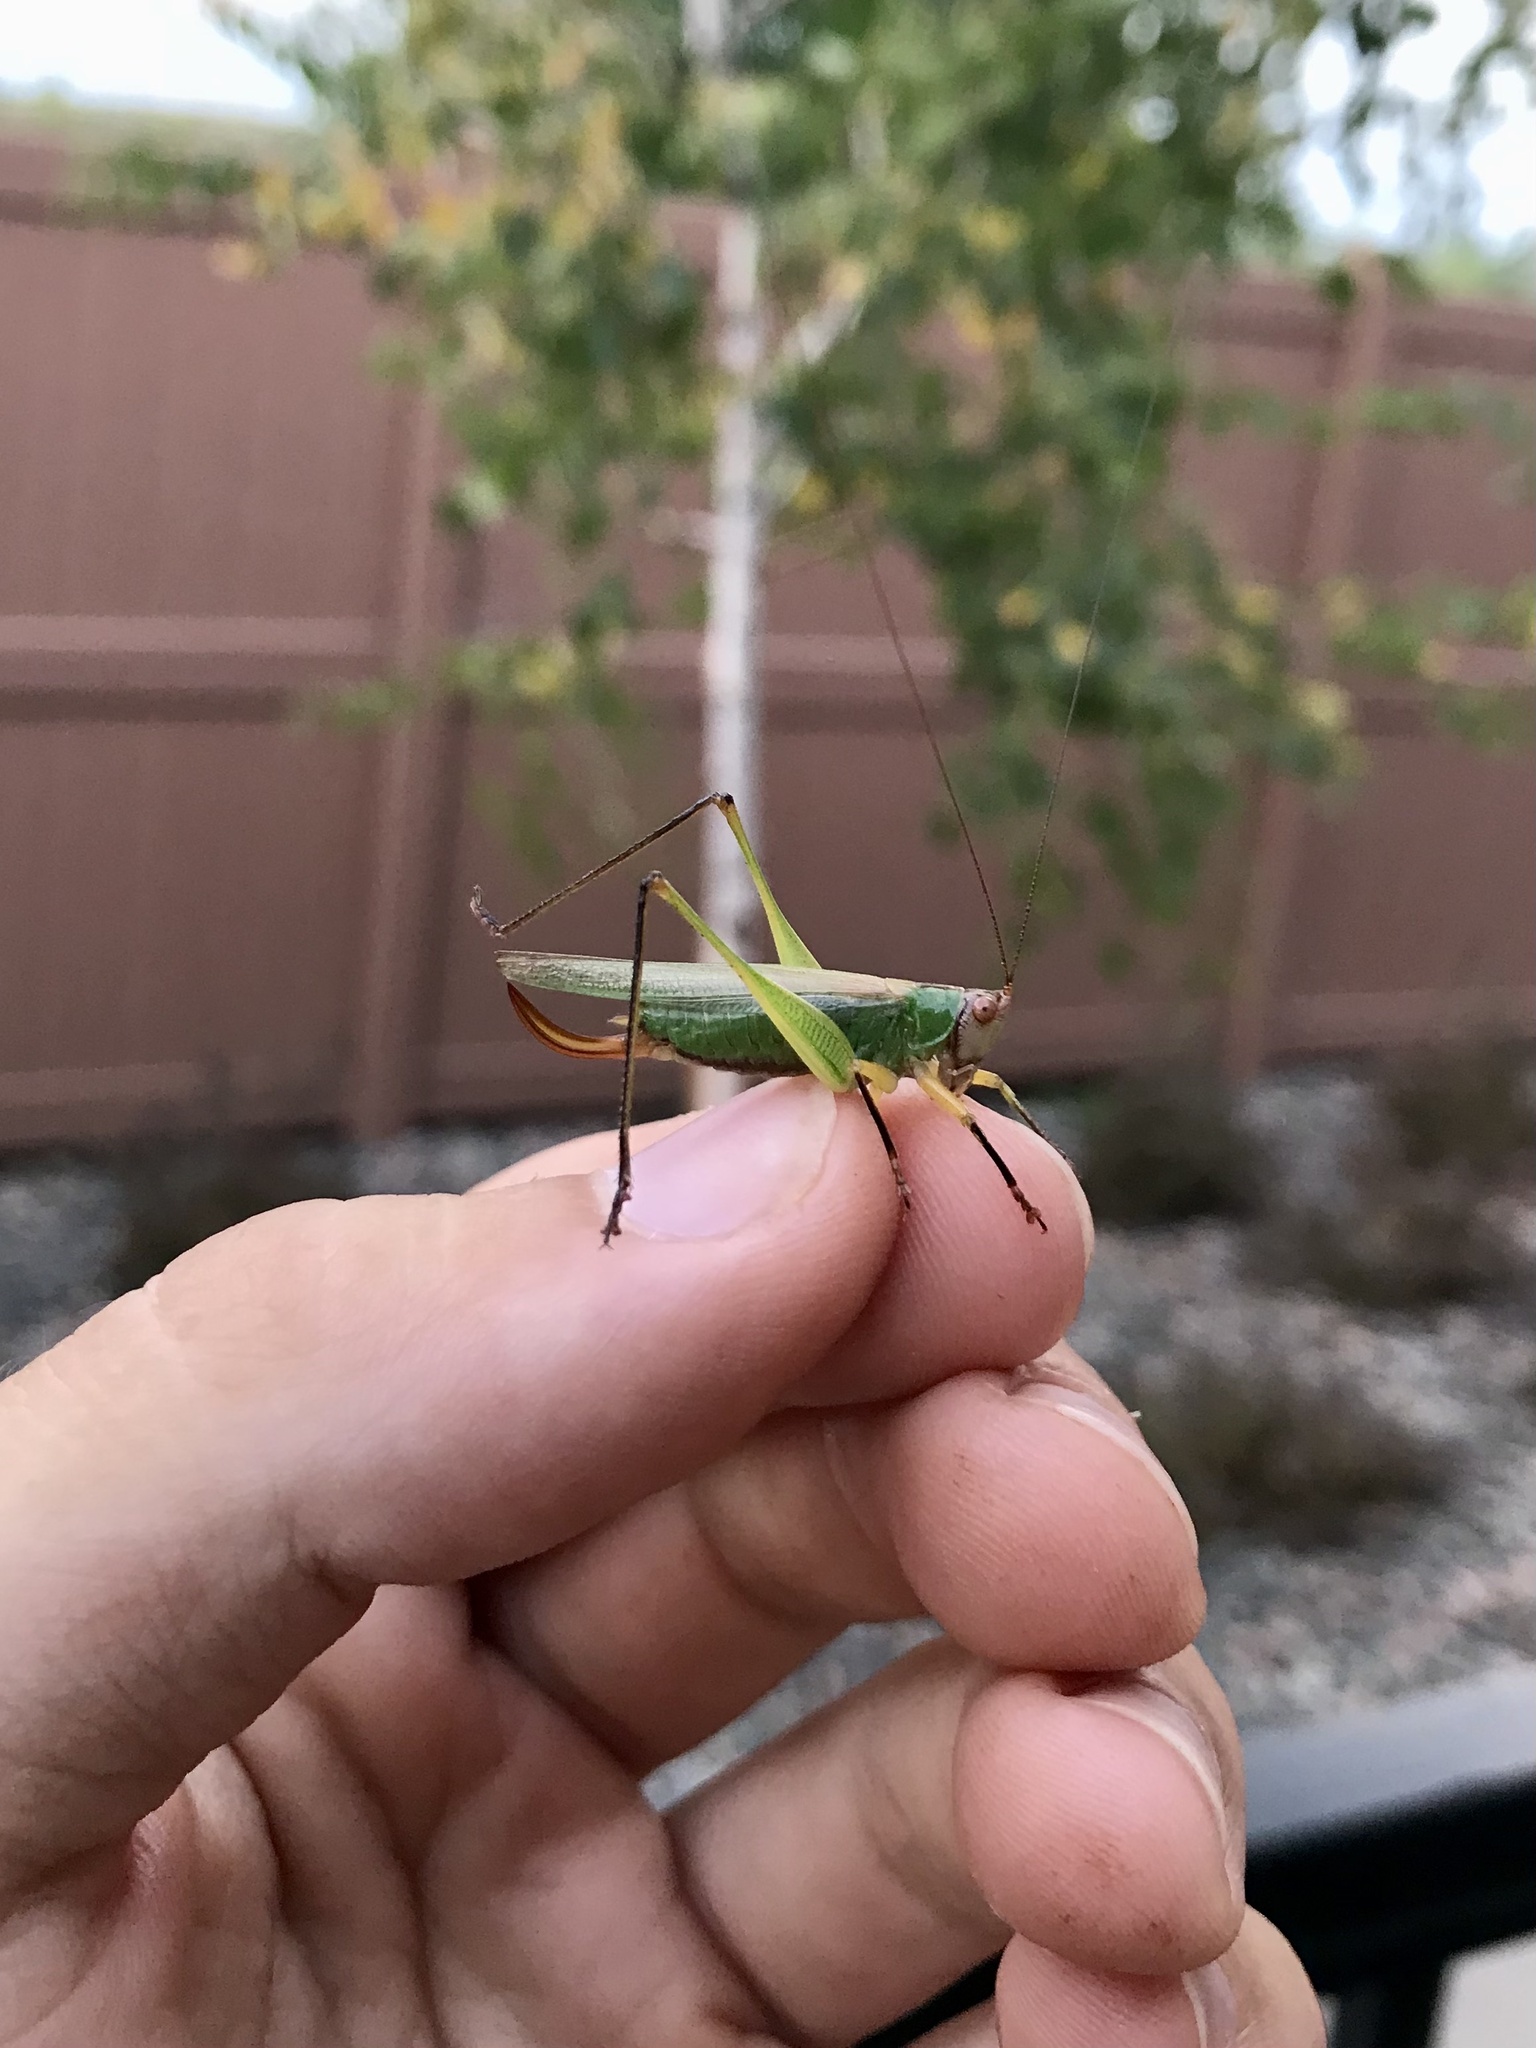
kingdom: Animalia
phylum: Arthropoda
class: Insecta
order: Orthoptera
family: Tettigoniidae
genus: Orchelimum
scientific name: Orchelimum nigripes
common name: Black-legged meadow katydid
